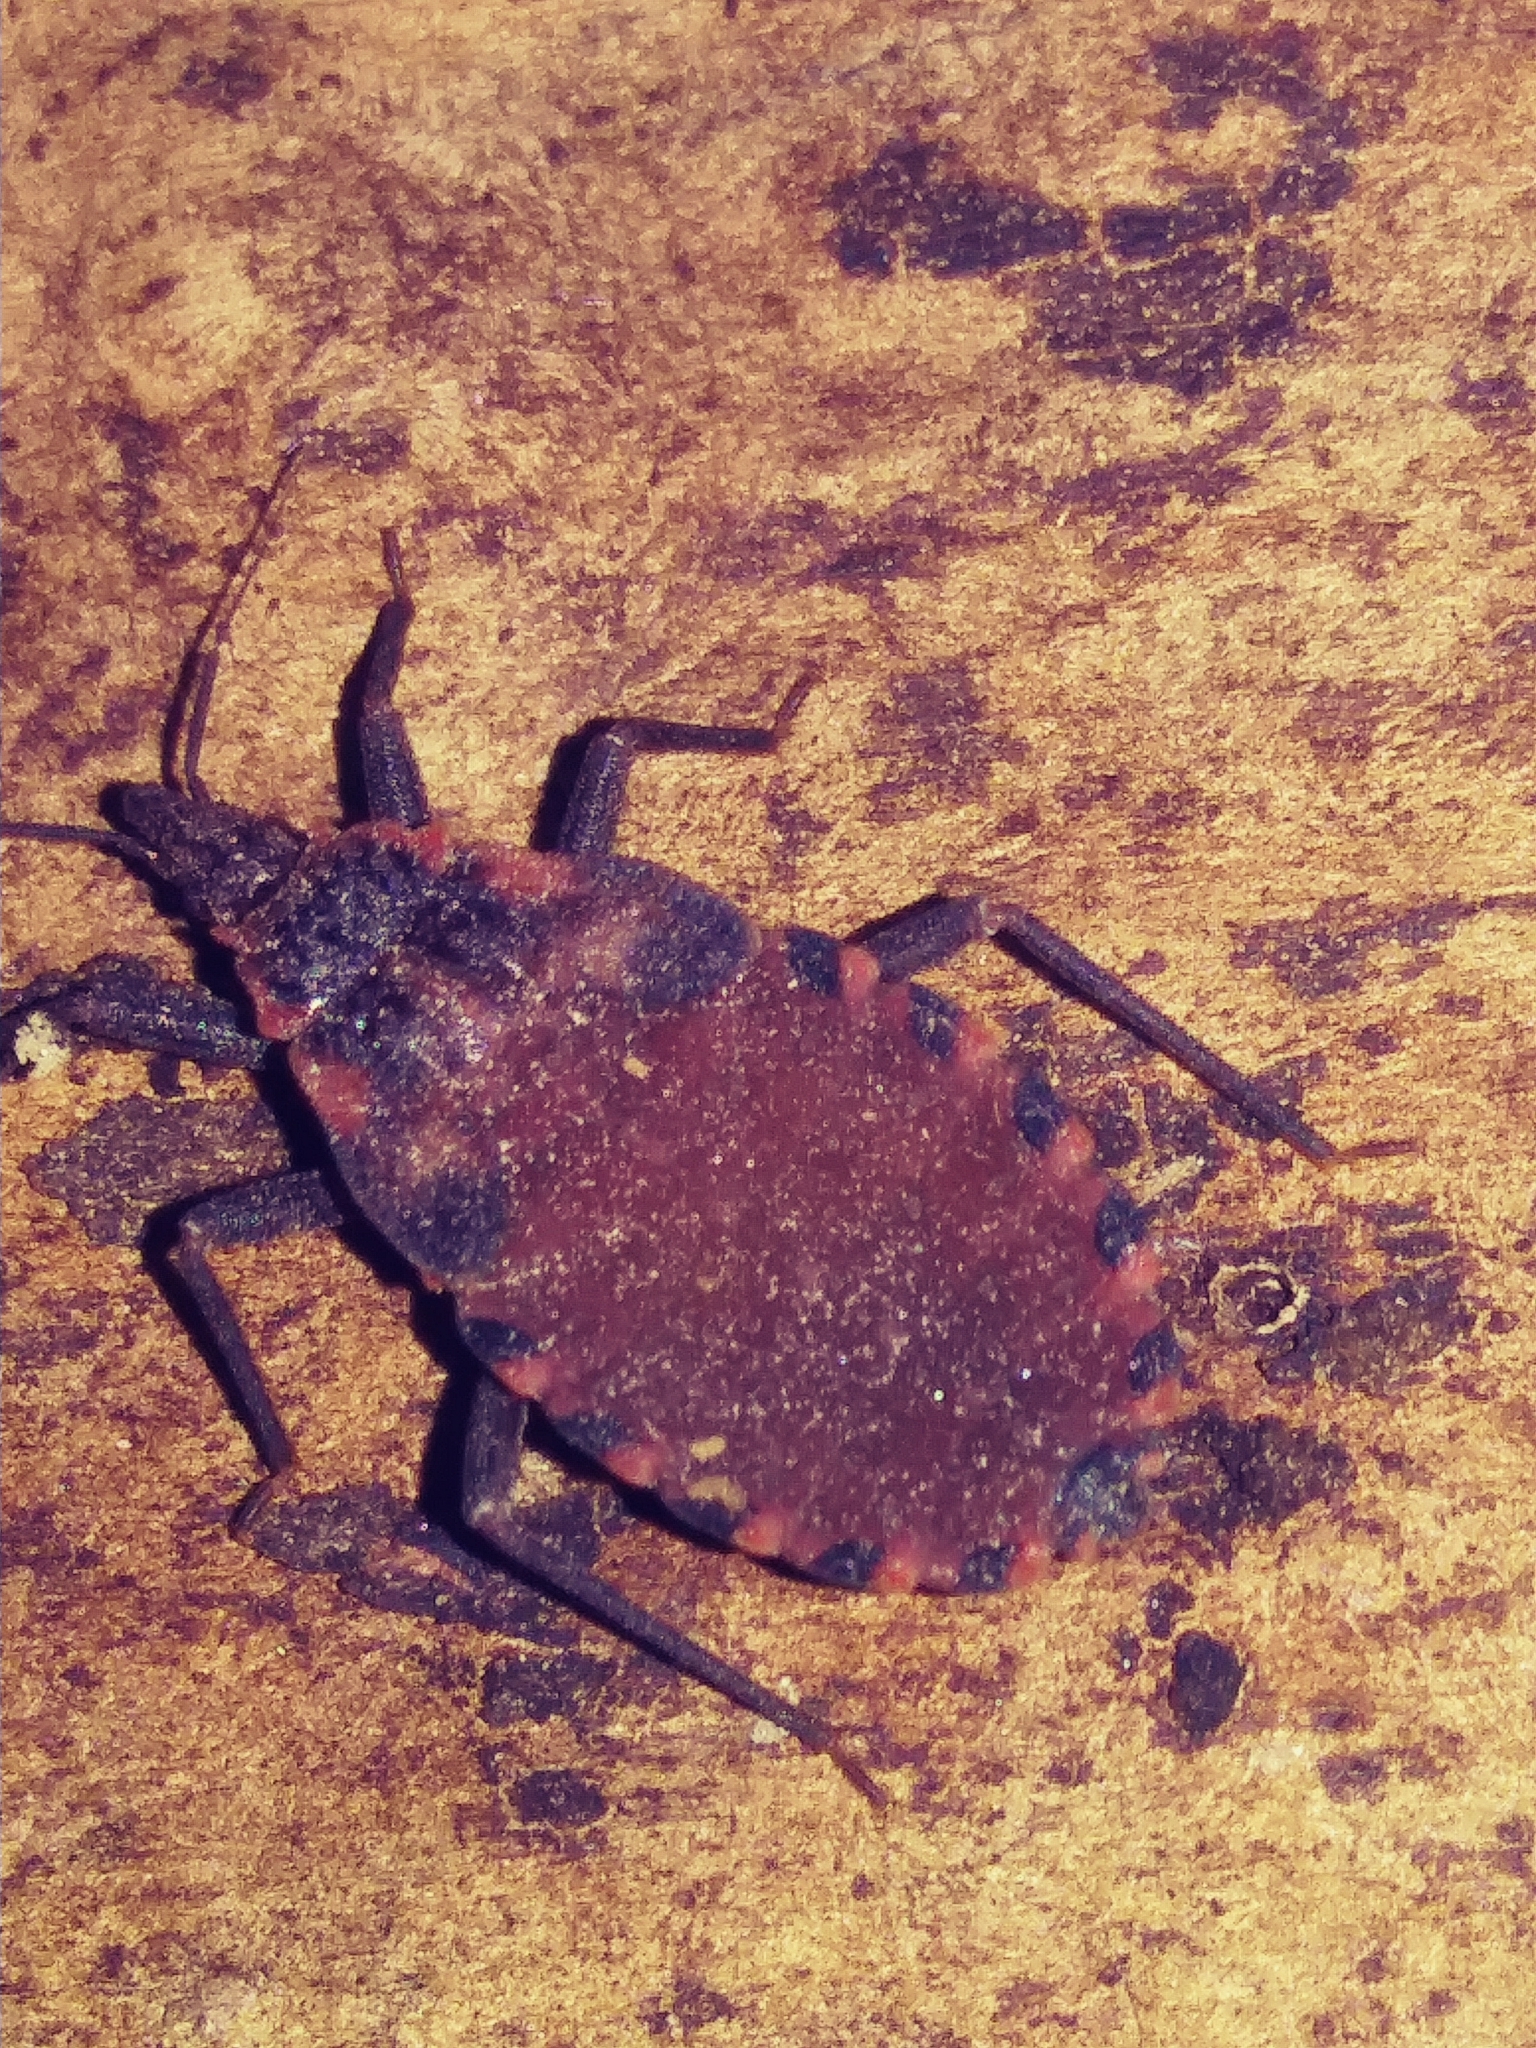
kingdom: Animalia
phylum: Arthropoda
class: Insecta
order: Hemiptera
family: Reduviidae
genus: Triatoma
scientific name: Triatoma sanguisuga
